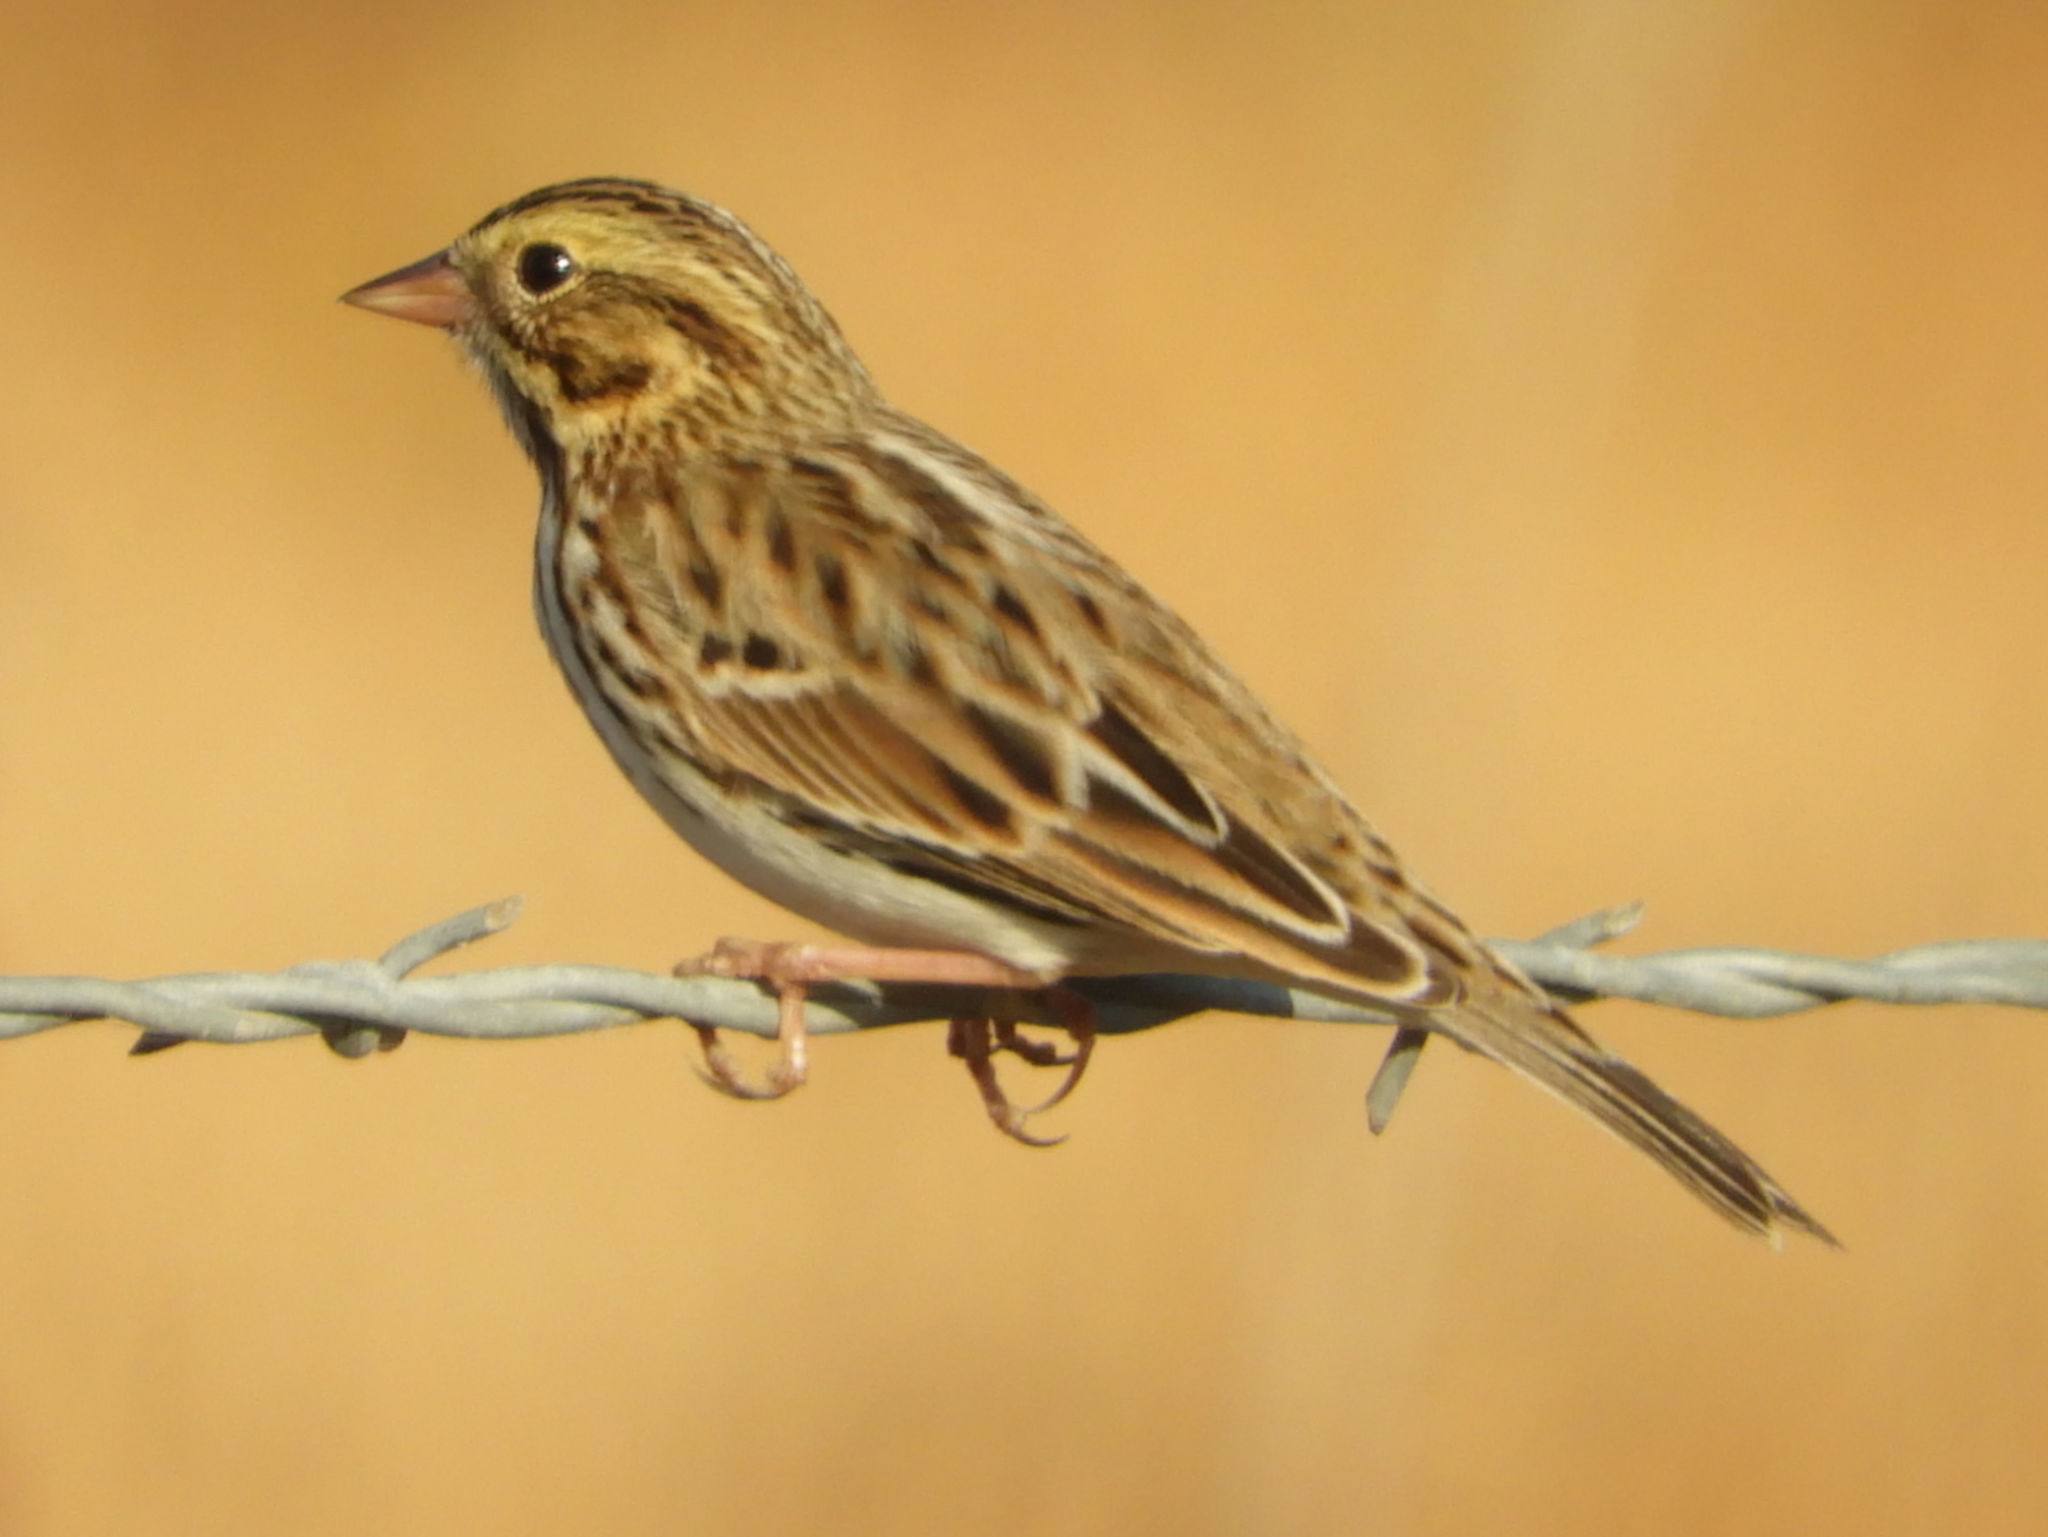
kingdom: Animalia
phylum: Chordata
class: Aves
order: Passeriformes
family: Passerellidae
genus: Passerculus
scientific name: Passerculus sandwichensis
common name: Savannah sparrow
